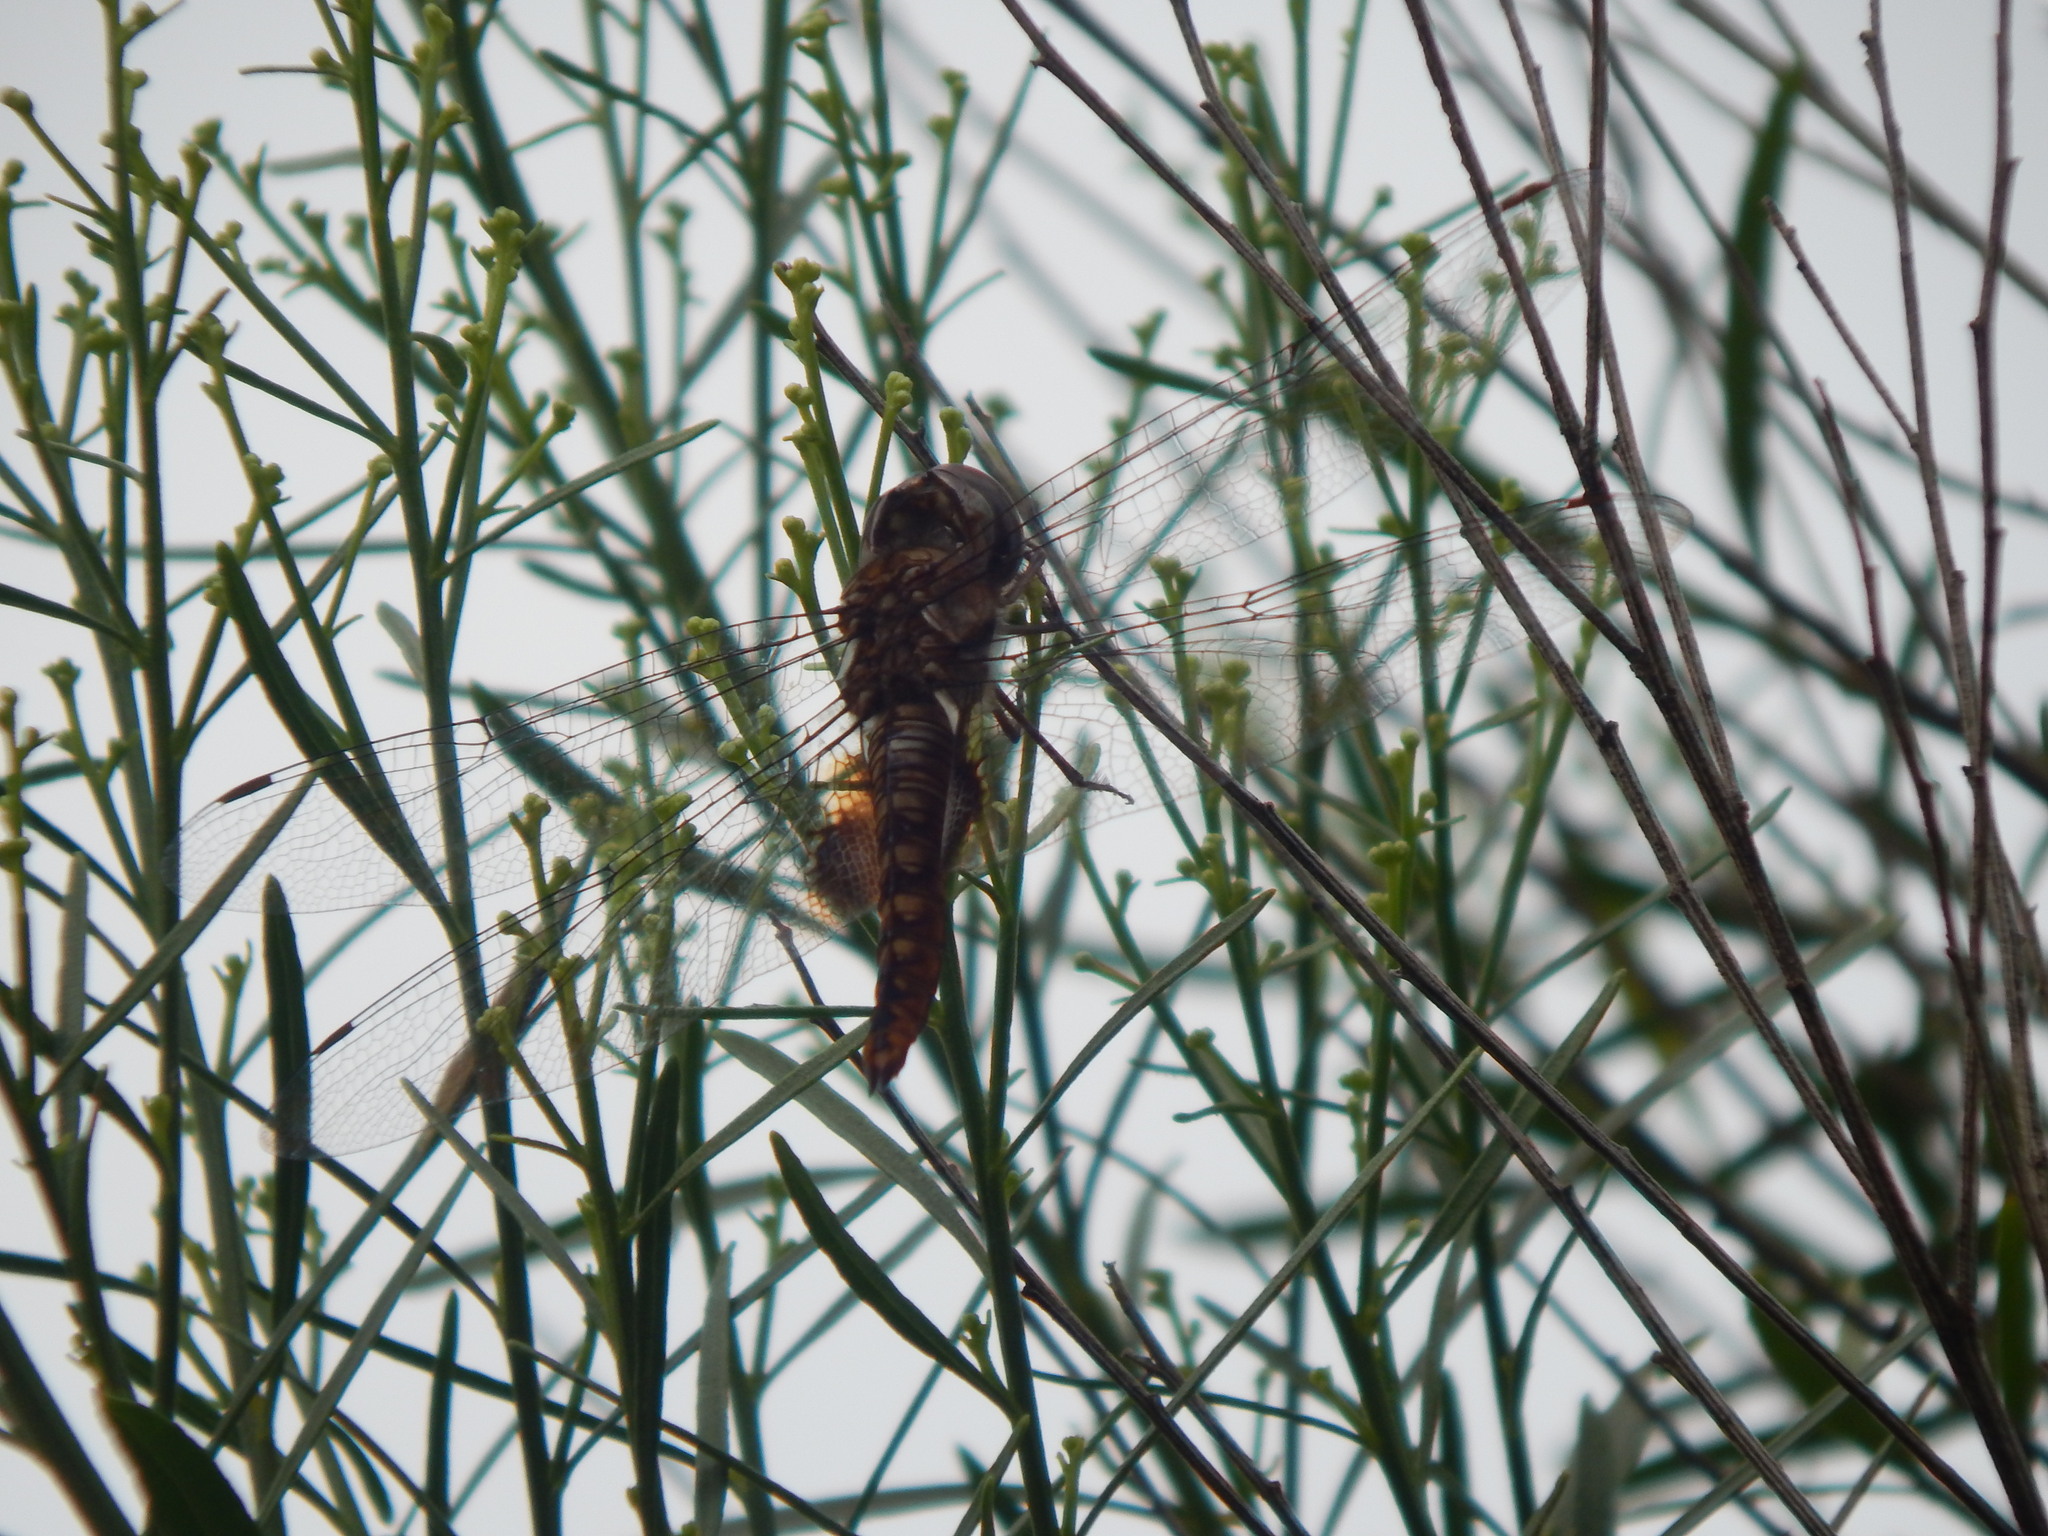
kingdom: Animalia
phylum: Arthropoda
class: Insecta
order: Odonata
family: Libellulidae
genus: Pantala
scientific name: Pantala hymenaea
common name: Spot-winged glider
